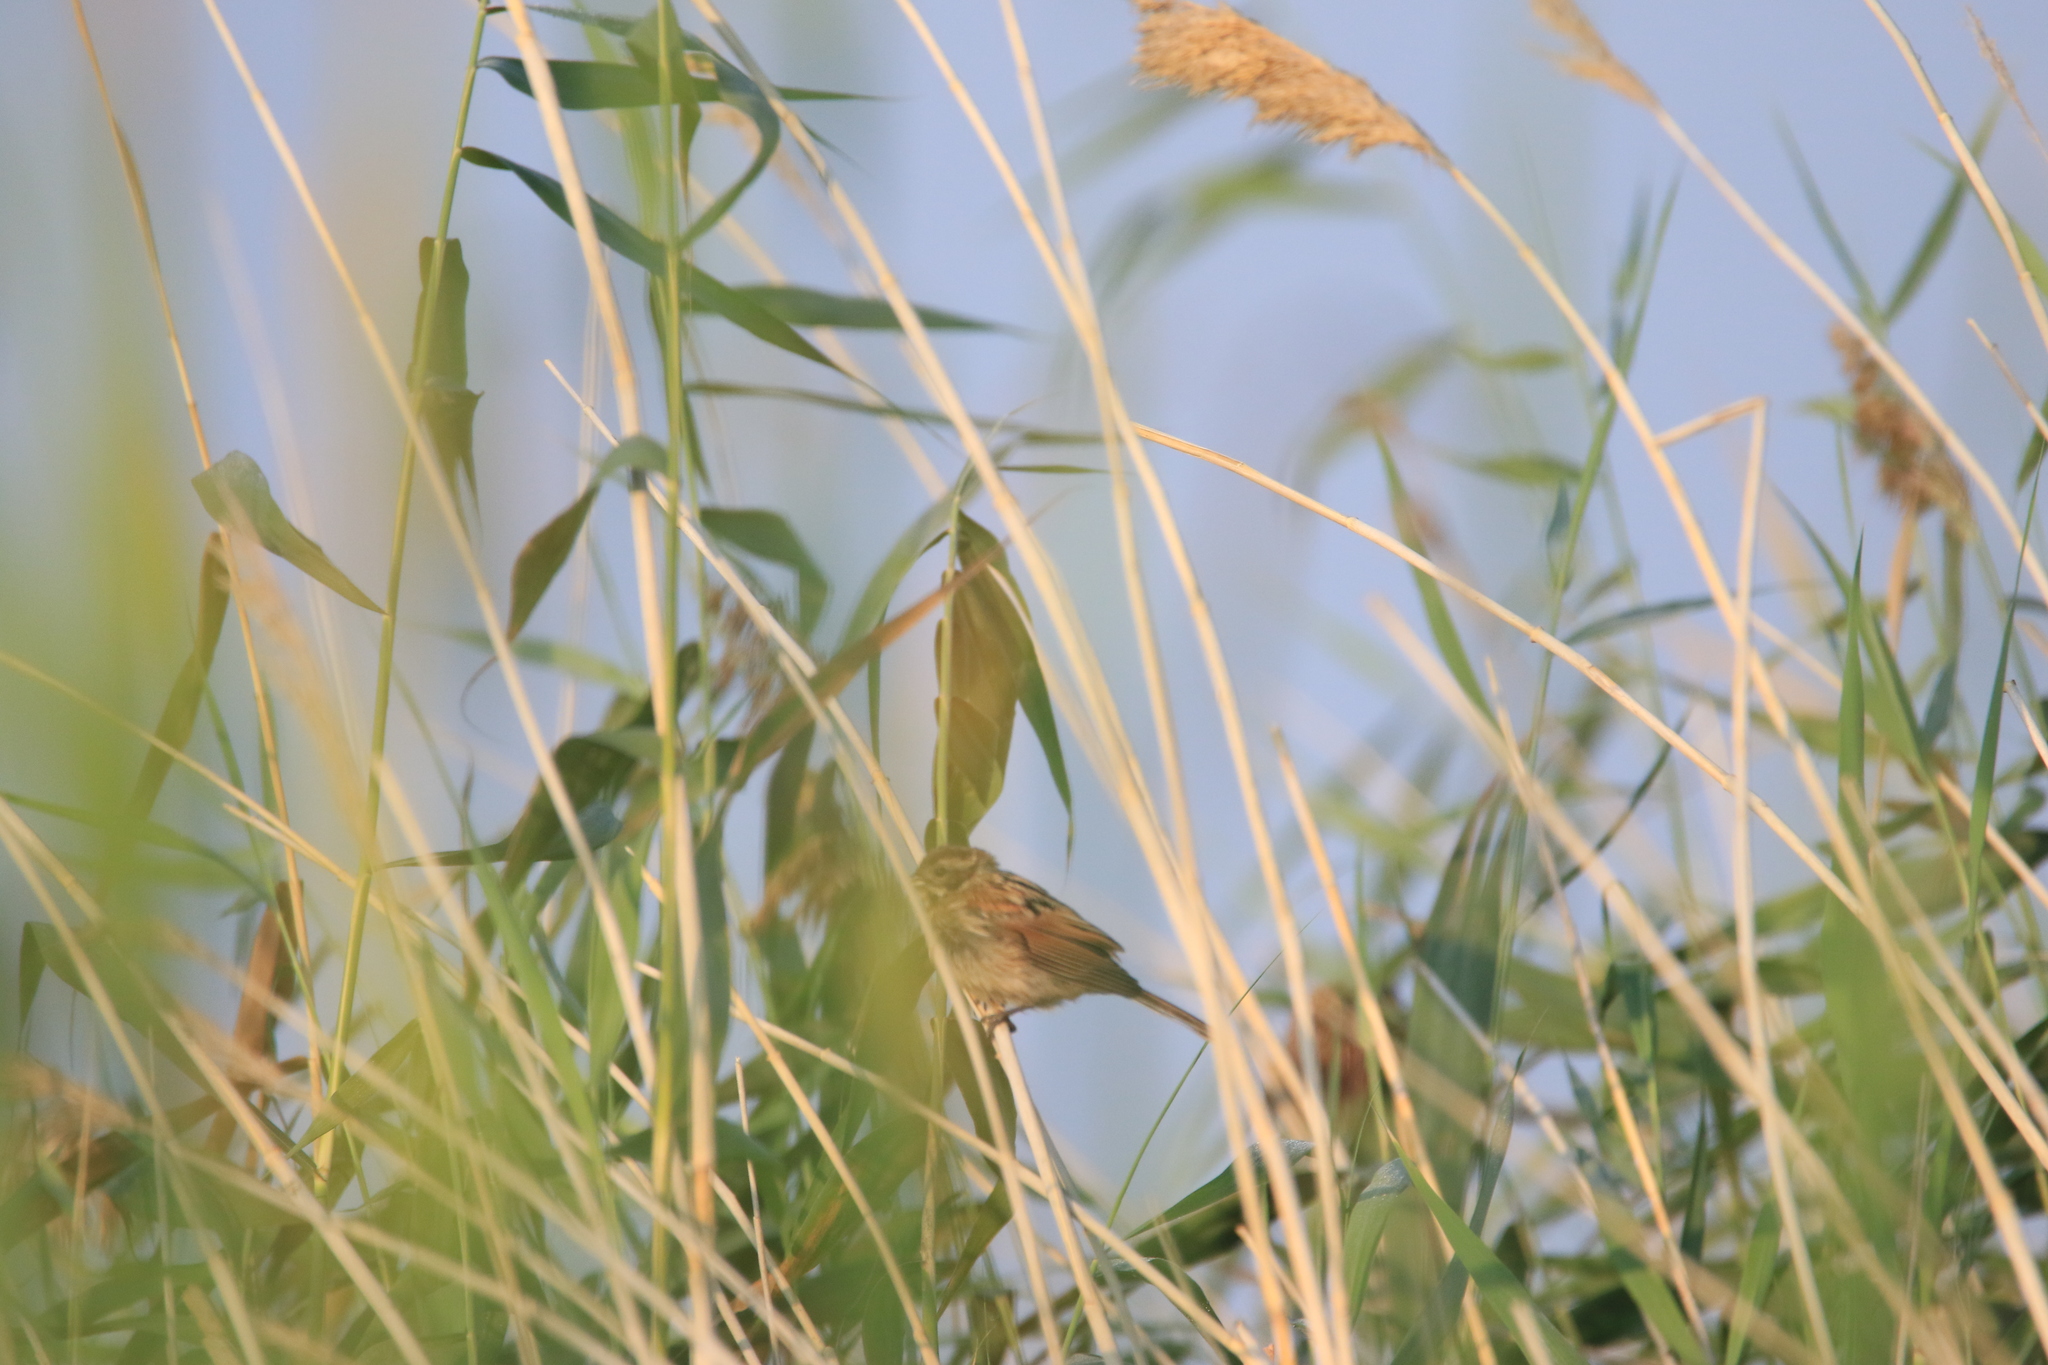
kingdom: Animalia
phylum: Chordata
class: Aves
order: Passeriformes
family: Emberizidae
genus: Emberiza
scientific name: Emberiza schoeniclus
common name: Reed bunting
